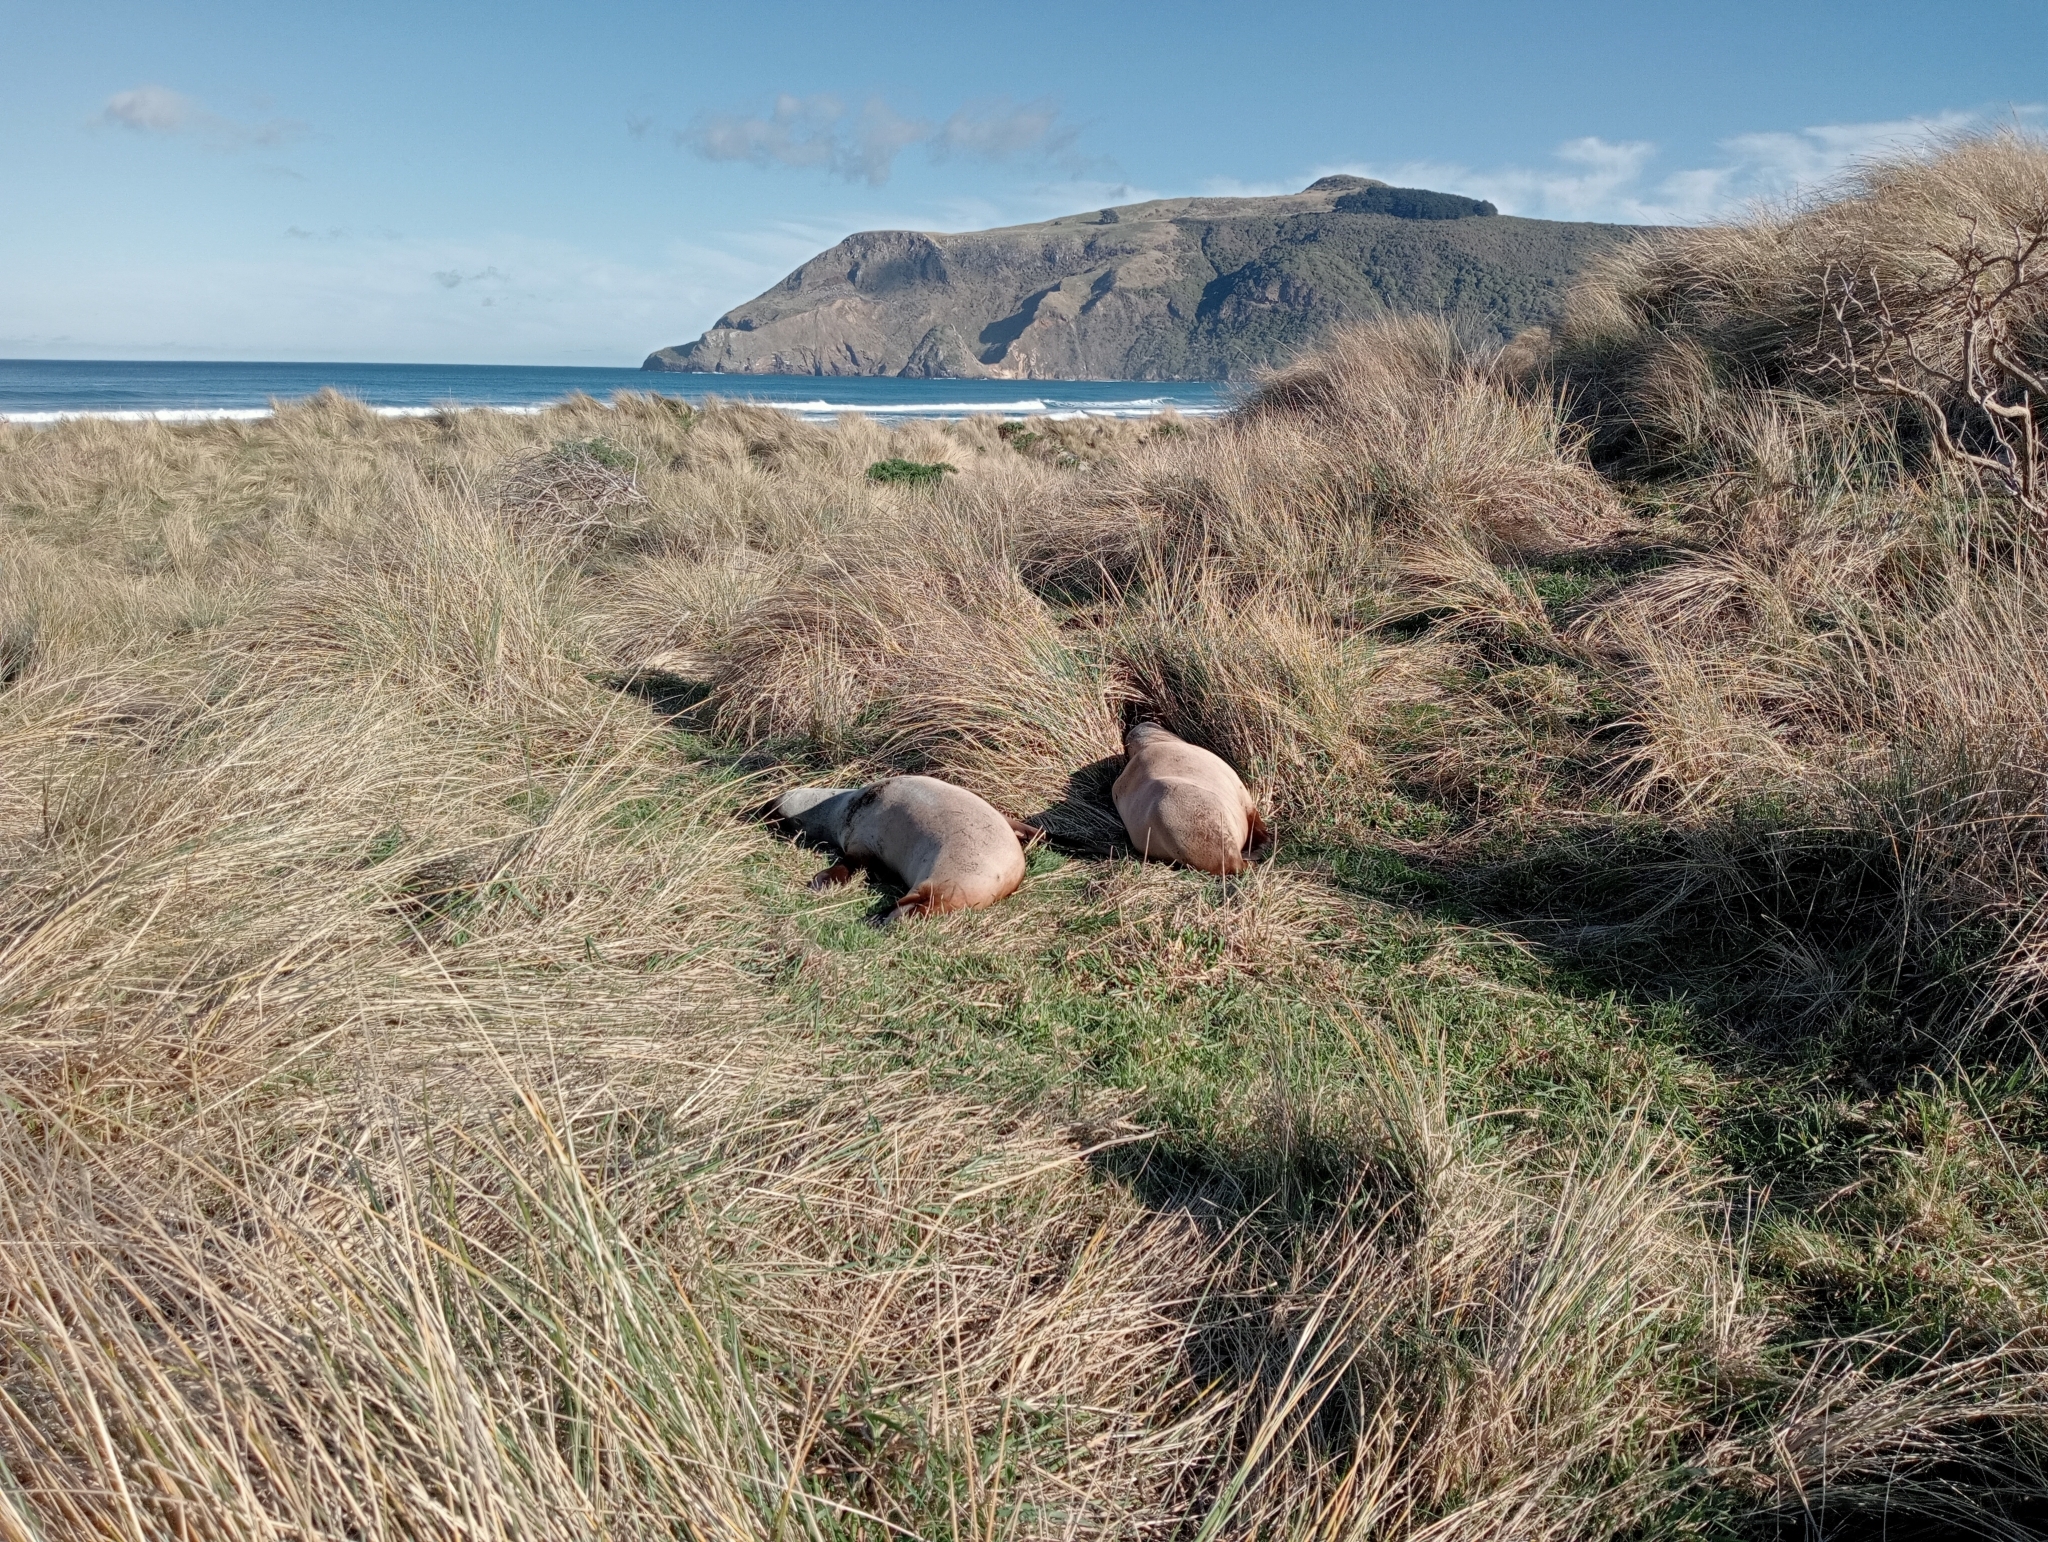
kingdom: Animalia
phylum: Chordata
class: Mammalia
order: Carnivora
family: Otariidae
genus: Phocarctos
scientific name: Phocarctos hookeri
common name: New zealand sea lion
